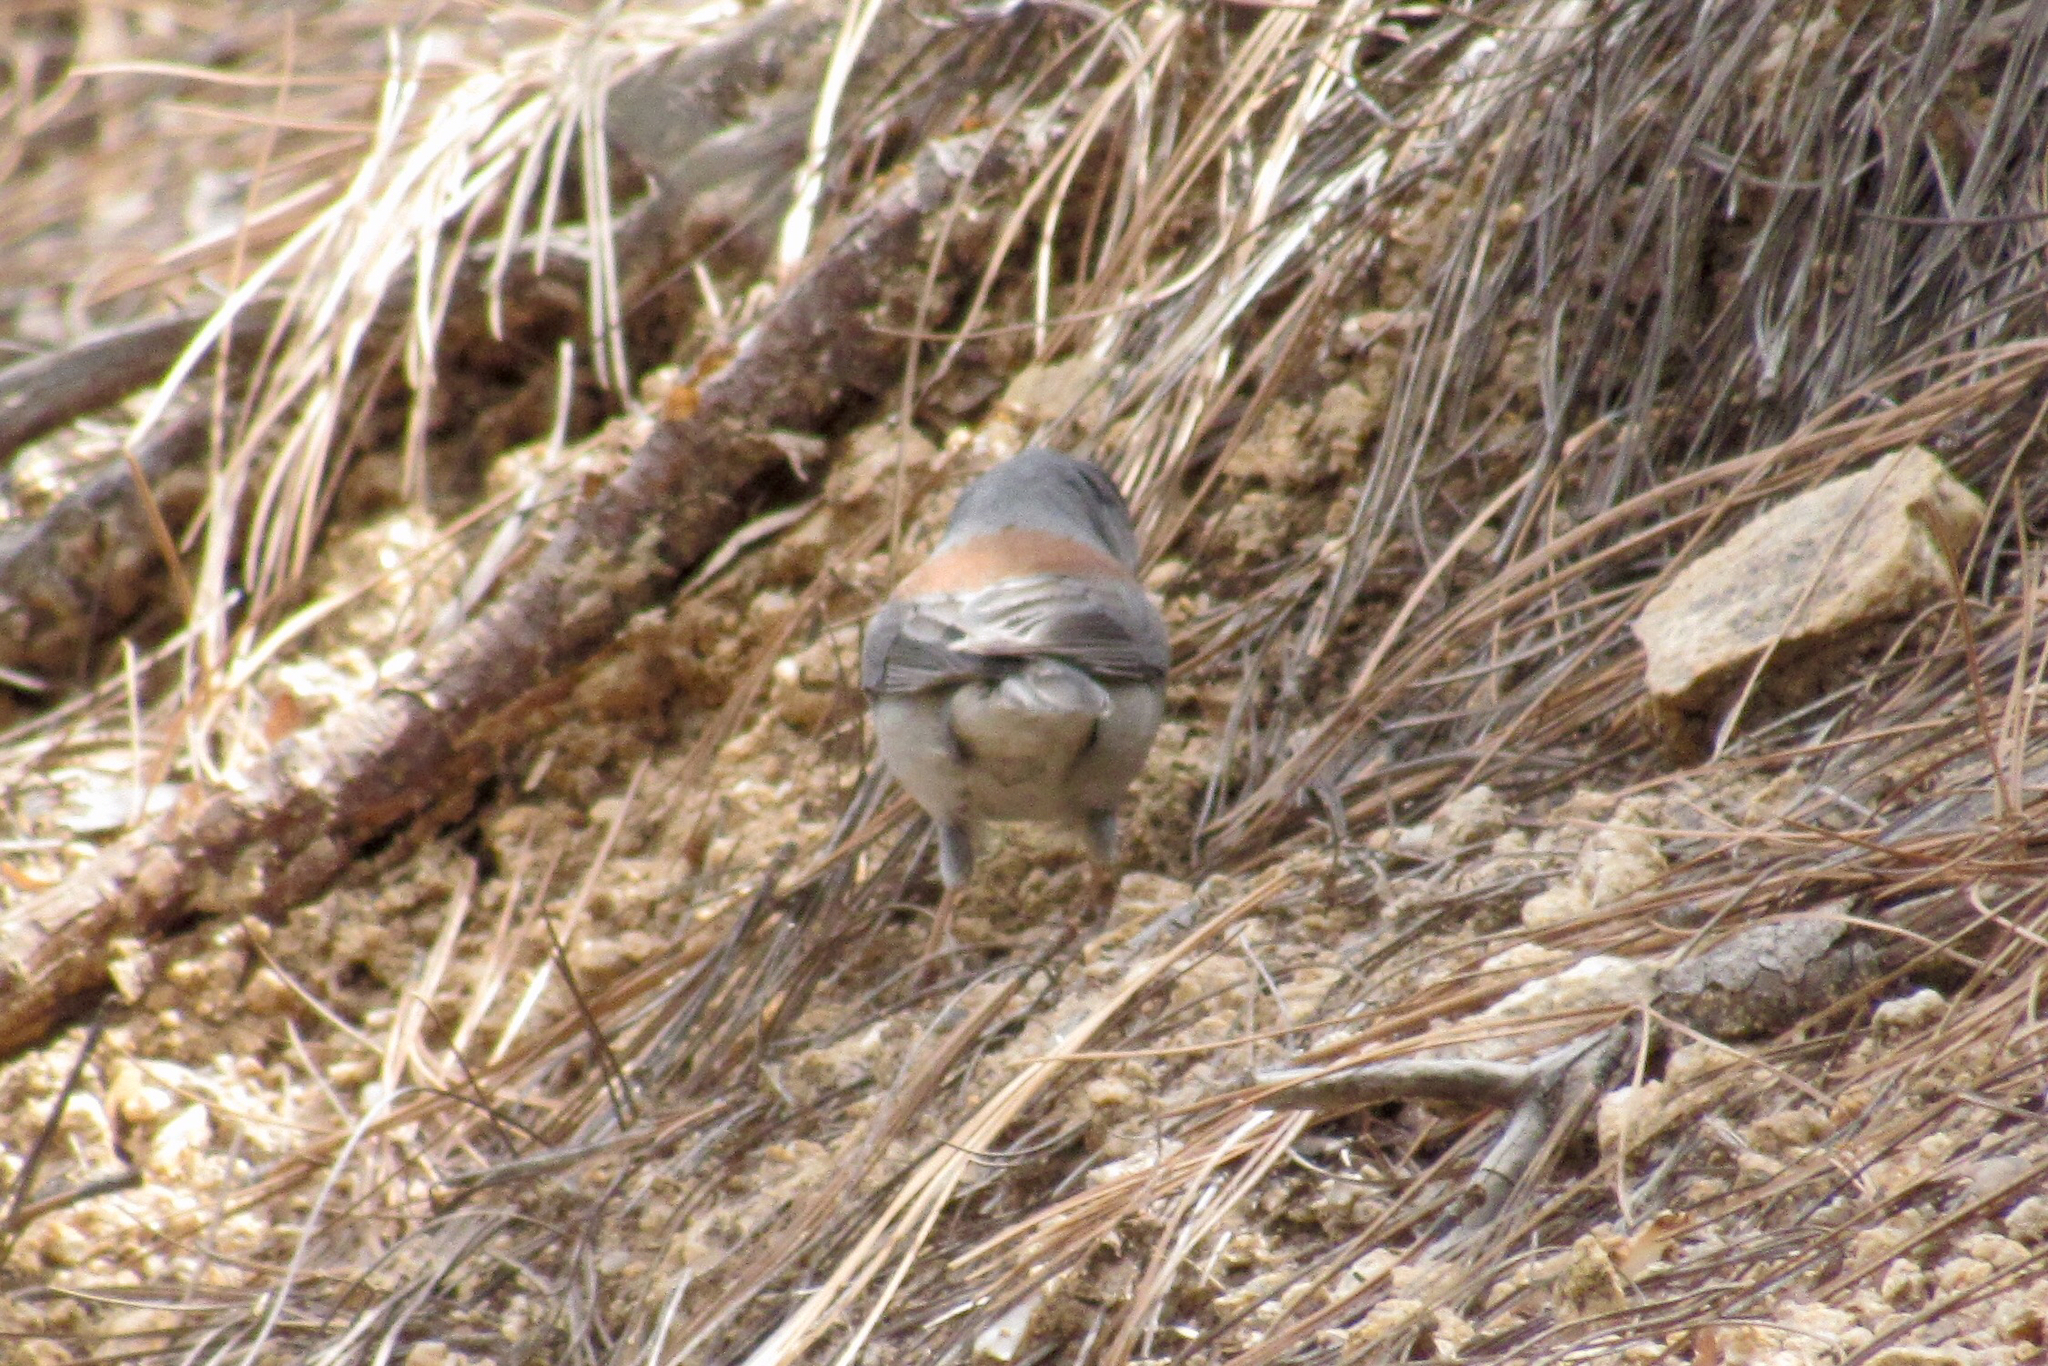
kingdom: Animalia
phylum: Chordata
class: Aves
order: Passeriformes
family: Passerellidae
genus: Junco
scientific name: Junco phaeonotus
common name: Yellow-eyed junco
